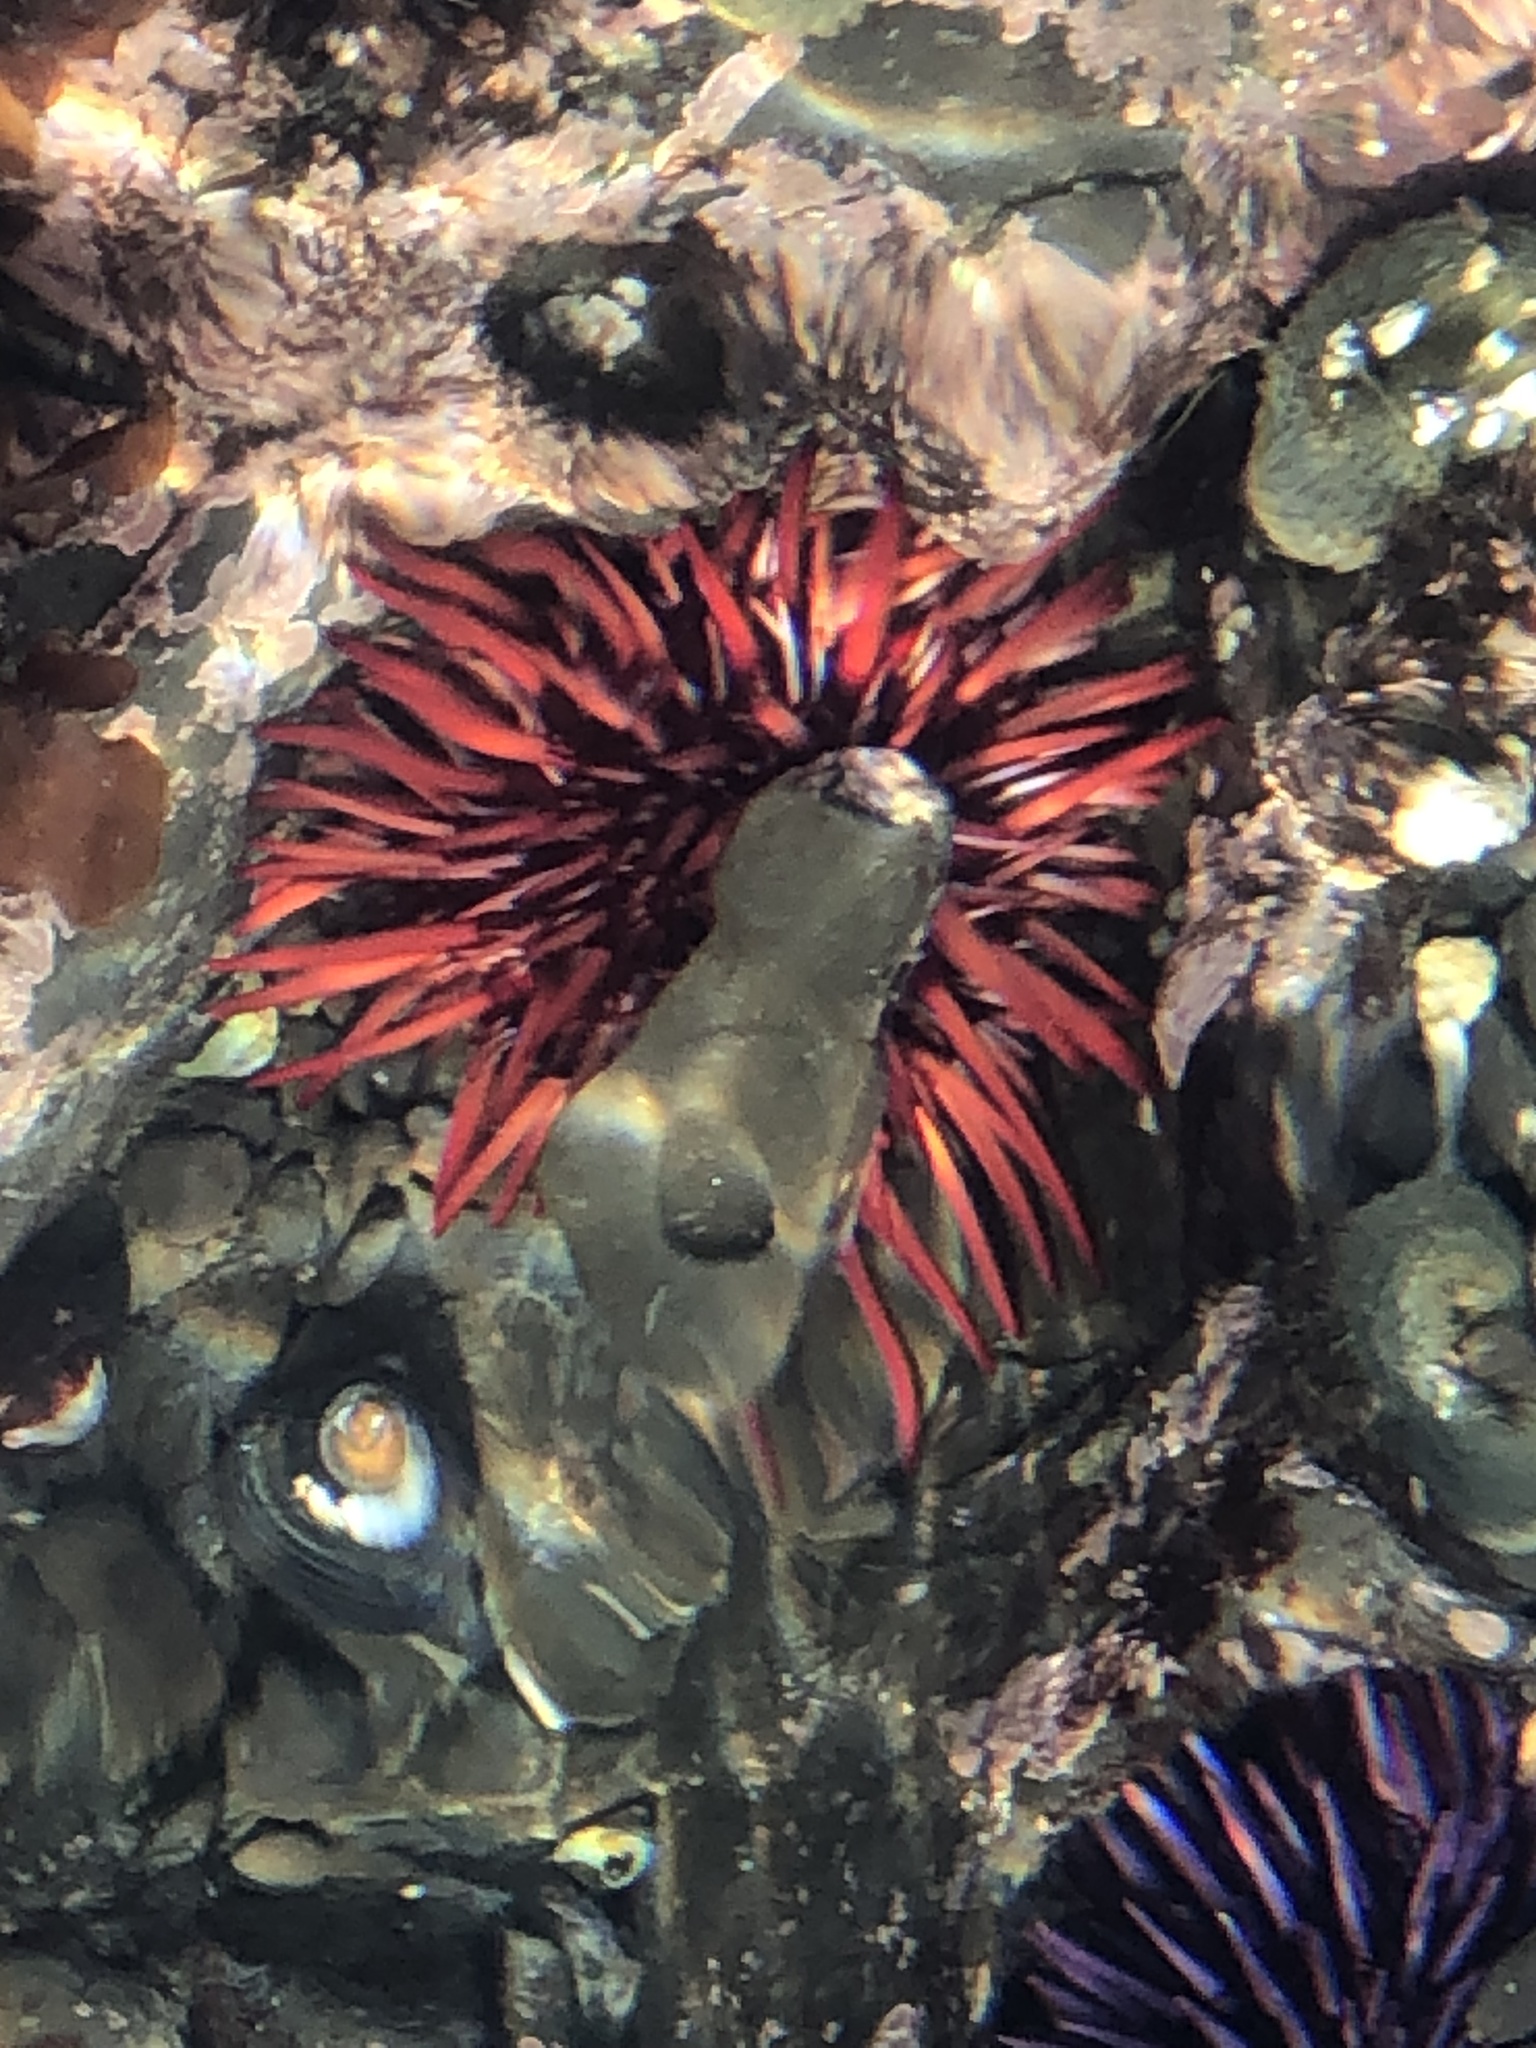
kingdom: Animalia
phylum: Echinodermata
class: Echinoidea
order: Camarodonta
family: Strongylocentrotidae
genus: Mesocentrotus
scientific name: Mesocentrotus franciscanus
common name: Red sea urchin
